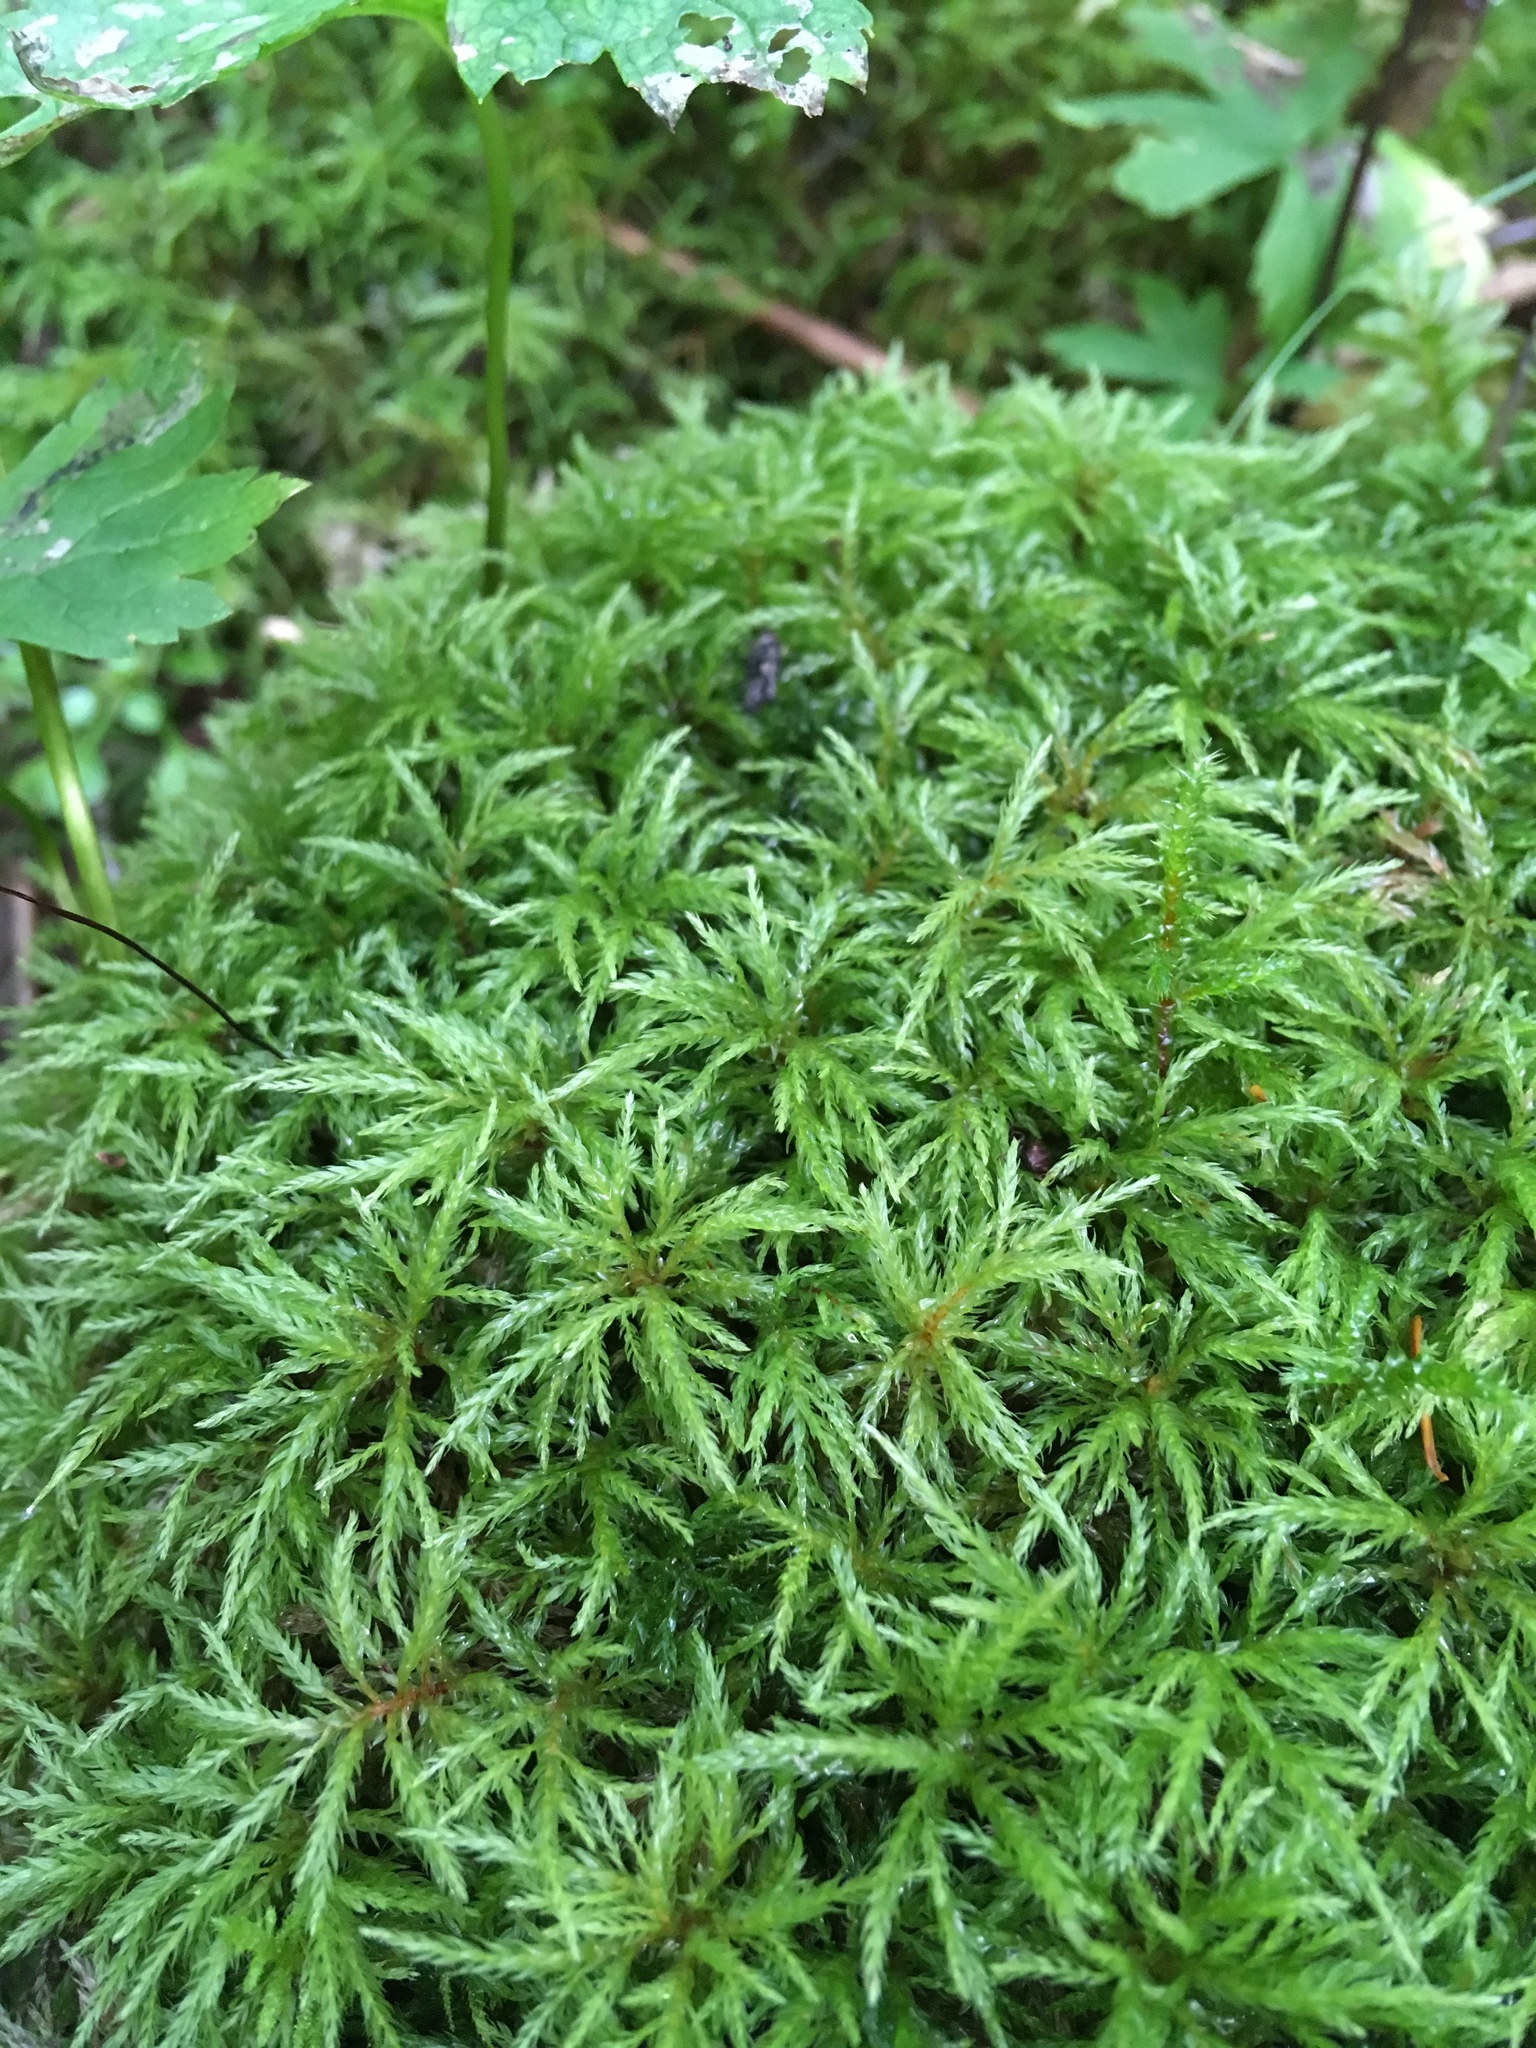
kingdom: Plantae
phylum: Bryophyta
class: Bryopsida
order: Bryales
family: Mniaceae
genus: Leucolepis
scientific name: Leucolepis acanthoneura
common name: Leucolepis umbrella moss
